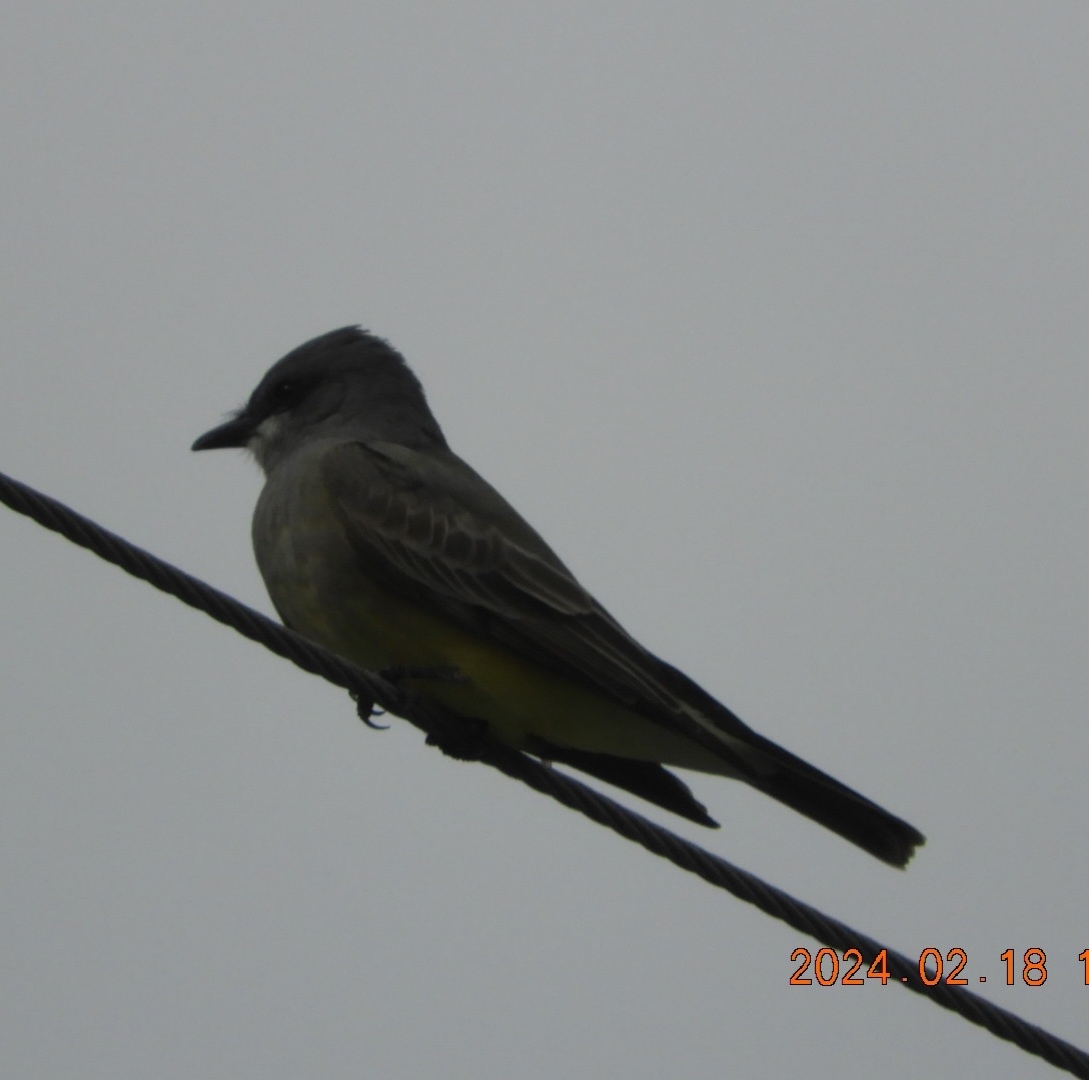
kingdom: Animalia
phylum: Chordata
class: Aves
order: Passeriformes
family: Tyrannidae
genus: Tyrannus
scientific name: Tyrannus vociferans
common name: Cassin's kingbird
